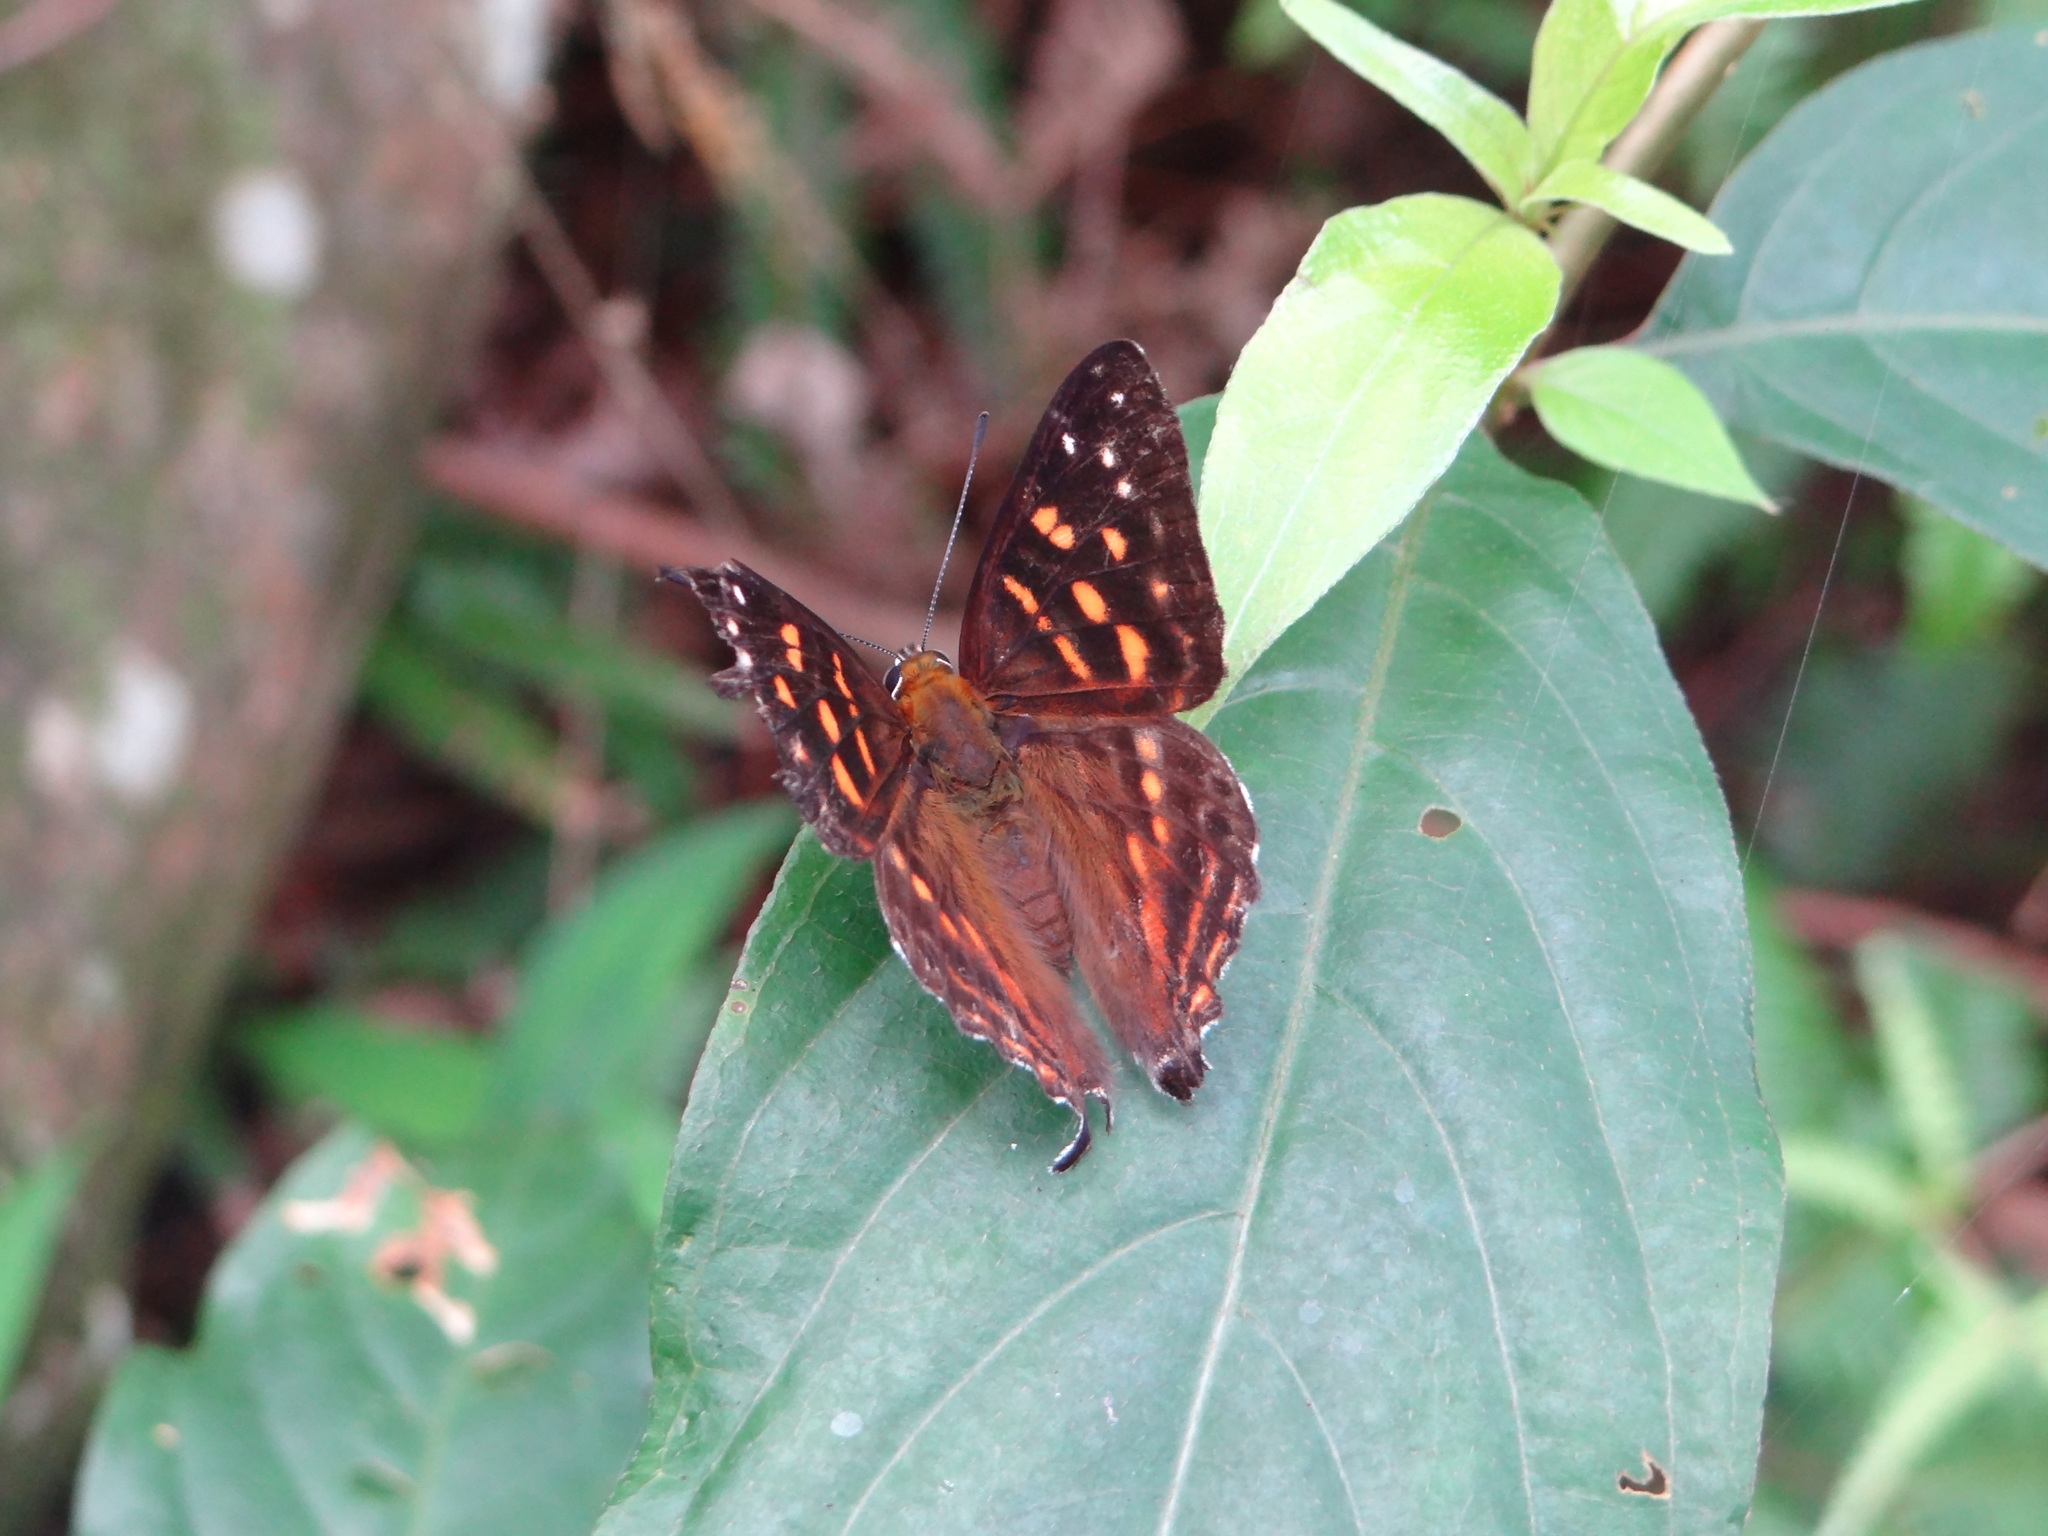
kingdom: Animalia
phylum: Arthropoda
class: Insecta
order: Lepidoptera
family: Lycaenidae
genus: Dodona
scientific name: Dodona eugenes
